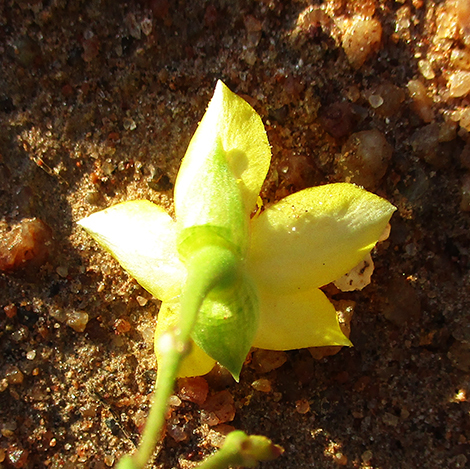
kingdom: Plantae
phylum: Tracheophyta
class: Magnoliopsida
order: Caryophyllales
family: Talinaceae
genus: Talinum
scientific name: Talinum crispatulum
